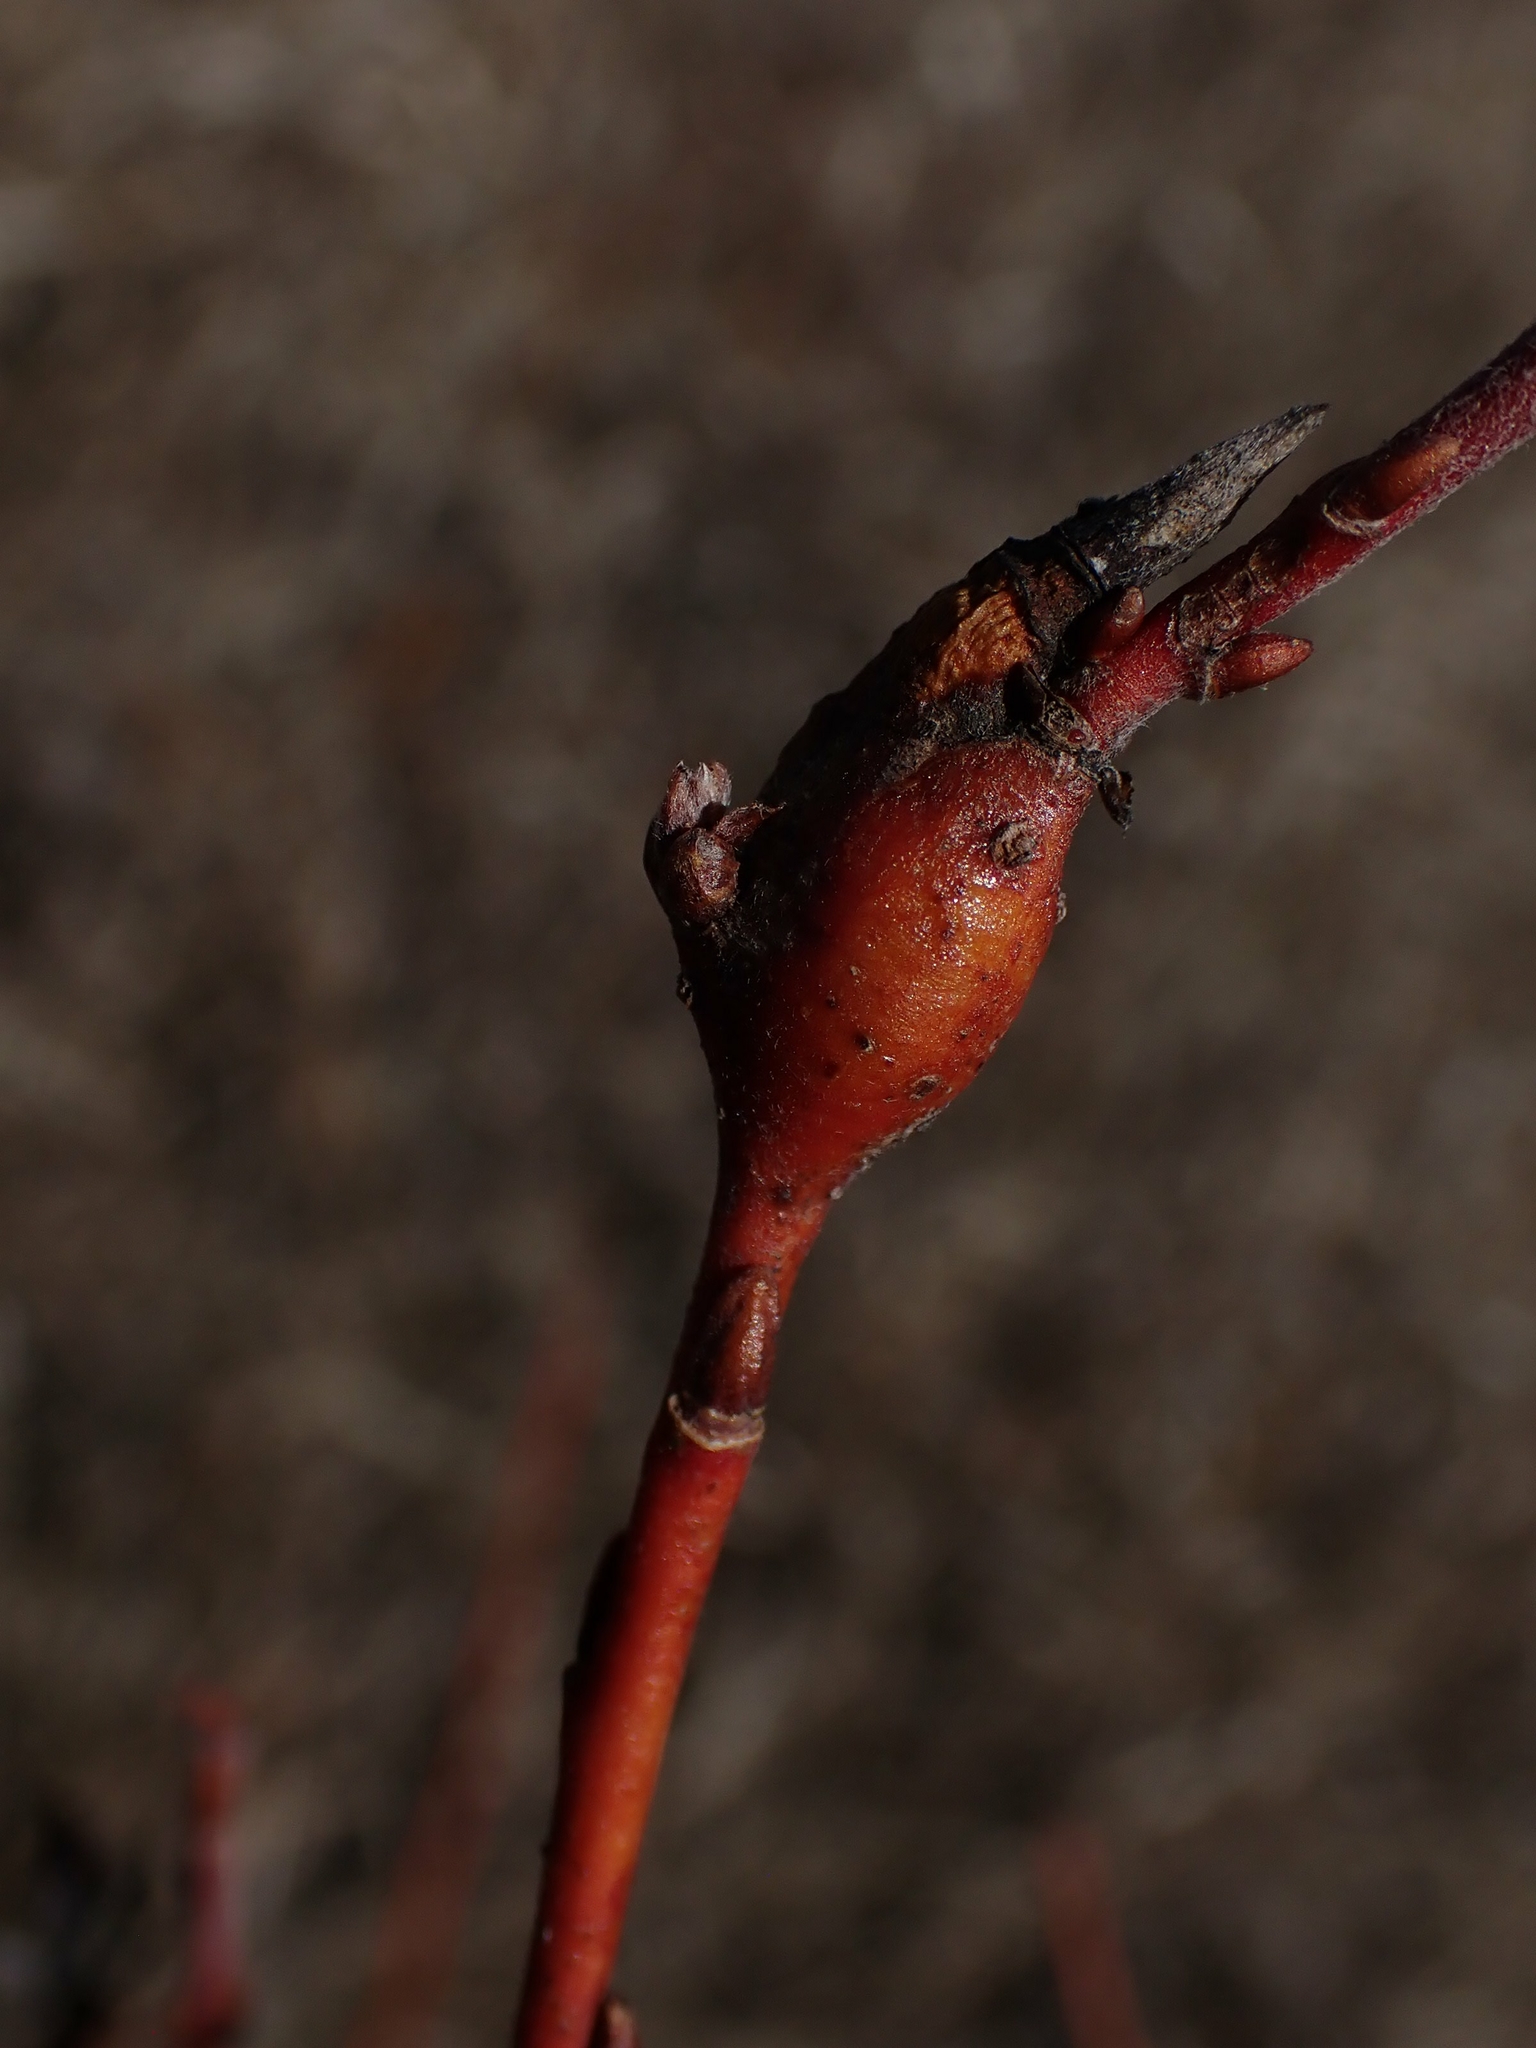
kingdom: Animalia
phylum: Arthropoda
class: Insecta
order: Diptera
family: Cecidomyiidae
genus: Thecodiplosis
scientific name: Thecodiplosis pinirigidae
